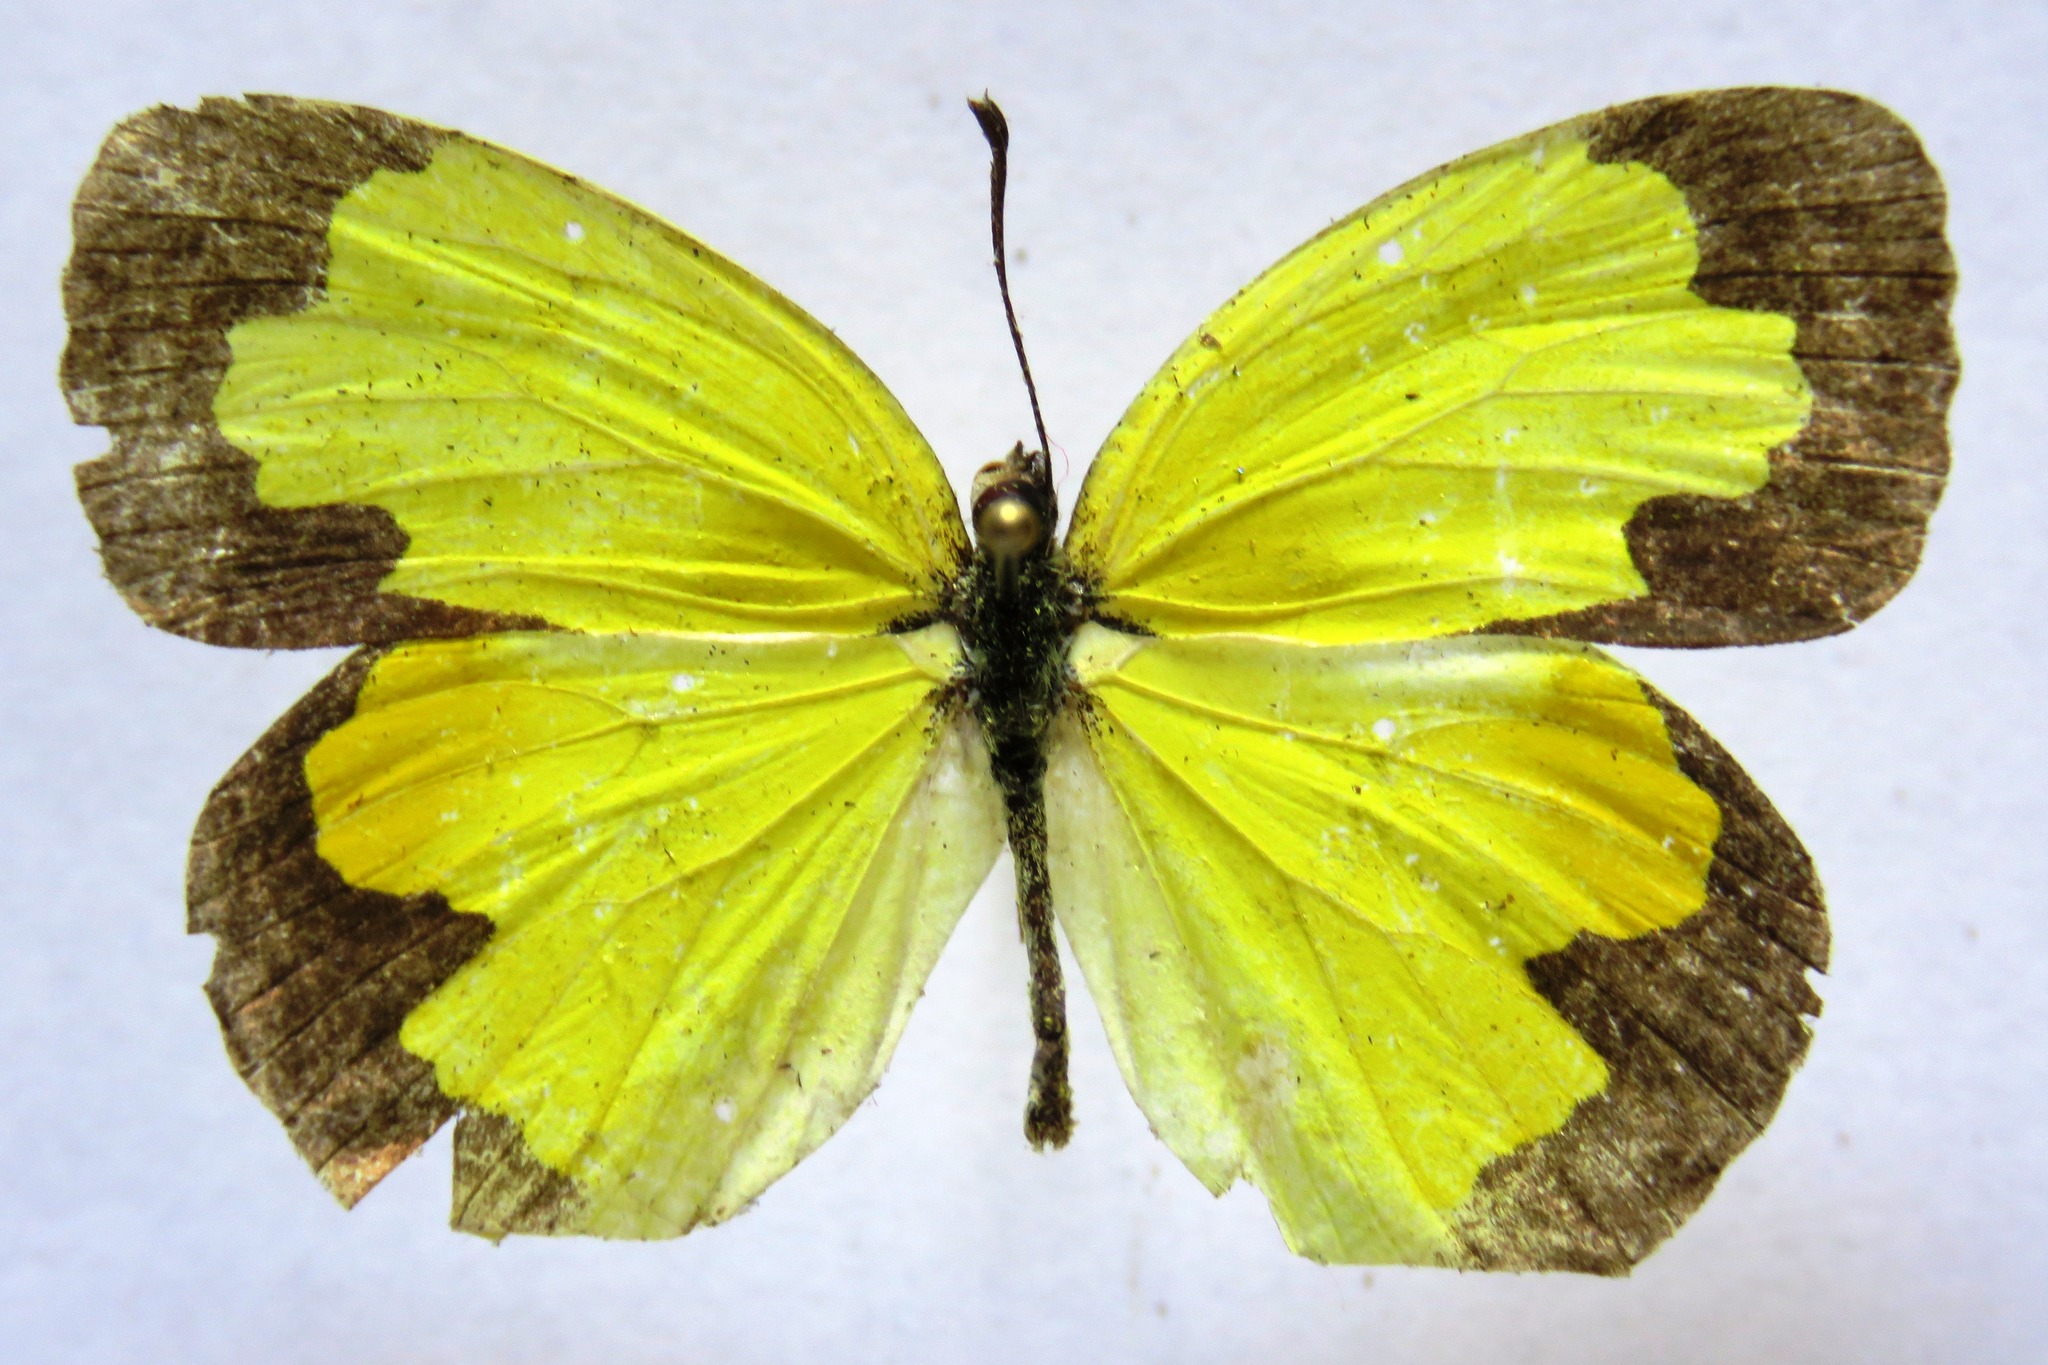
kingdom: Animalia
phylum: Arthropoda
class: Insecta
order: Lepidoptera
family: Pieridae
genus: Abaeis
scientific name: Abaeis boisduvaliana
